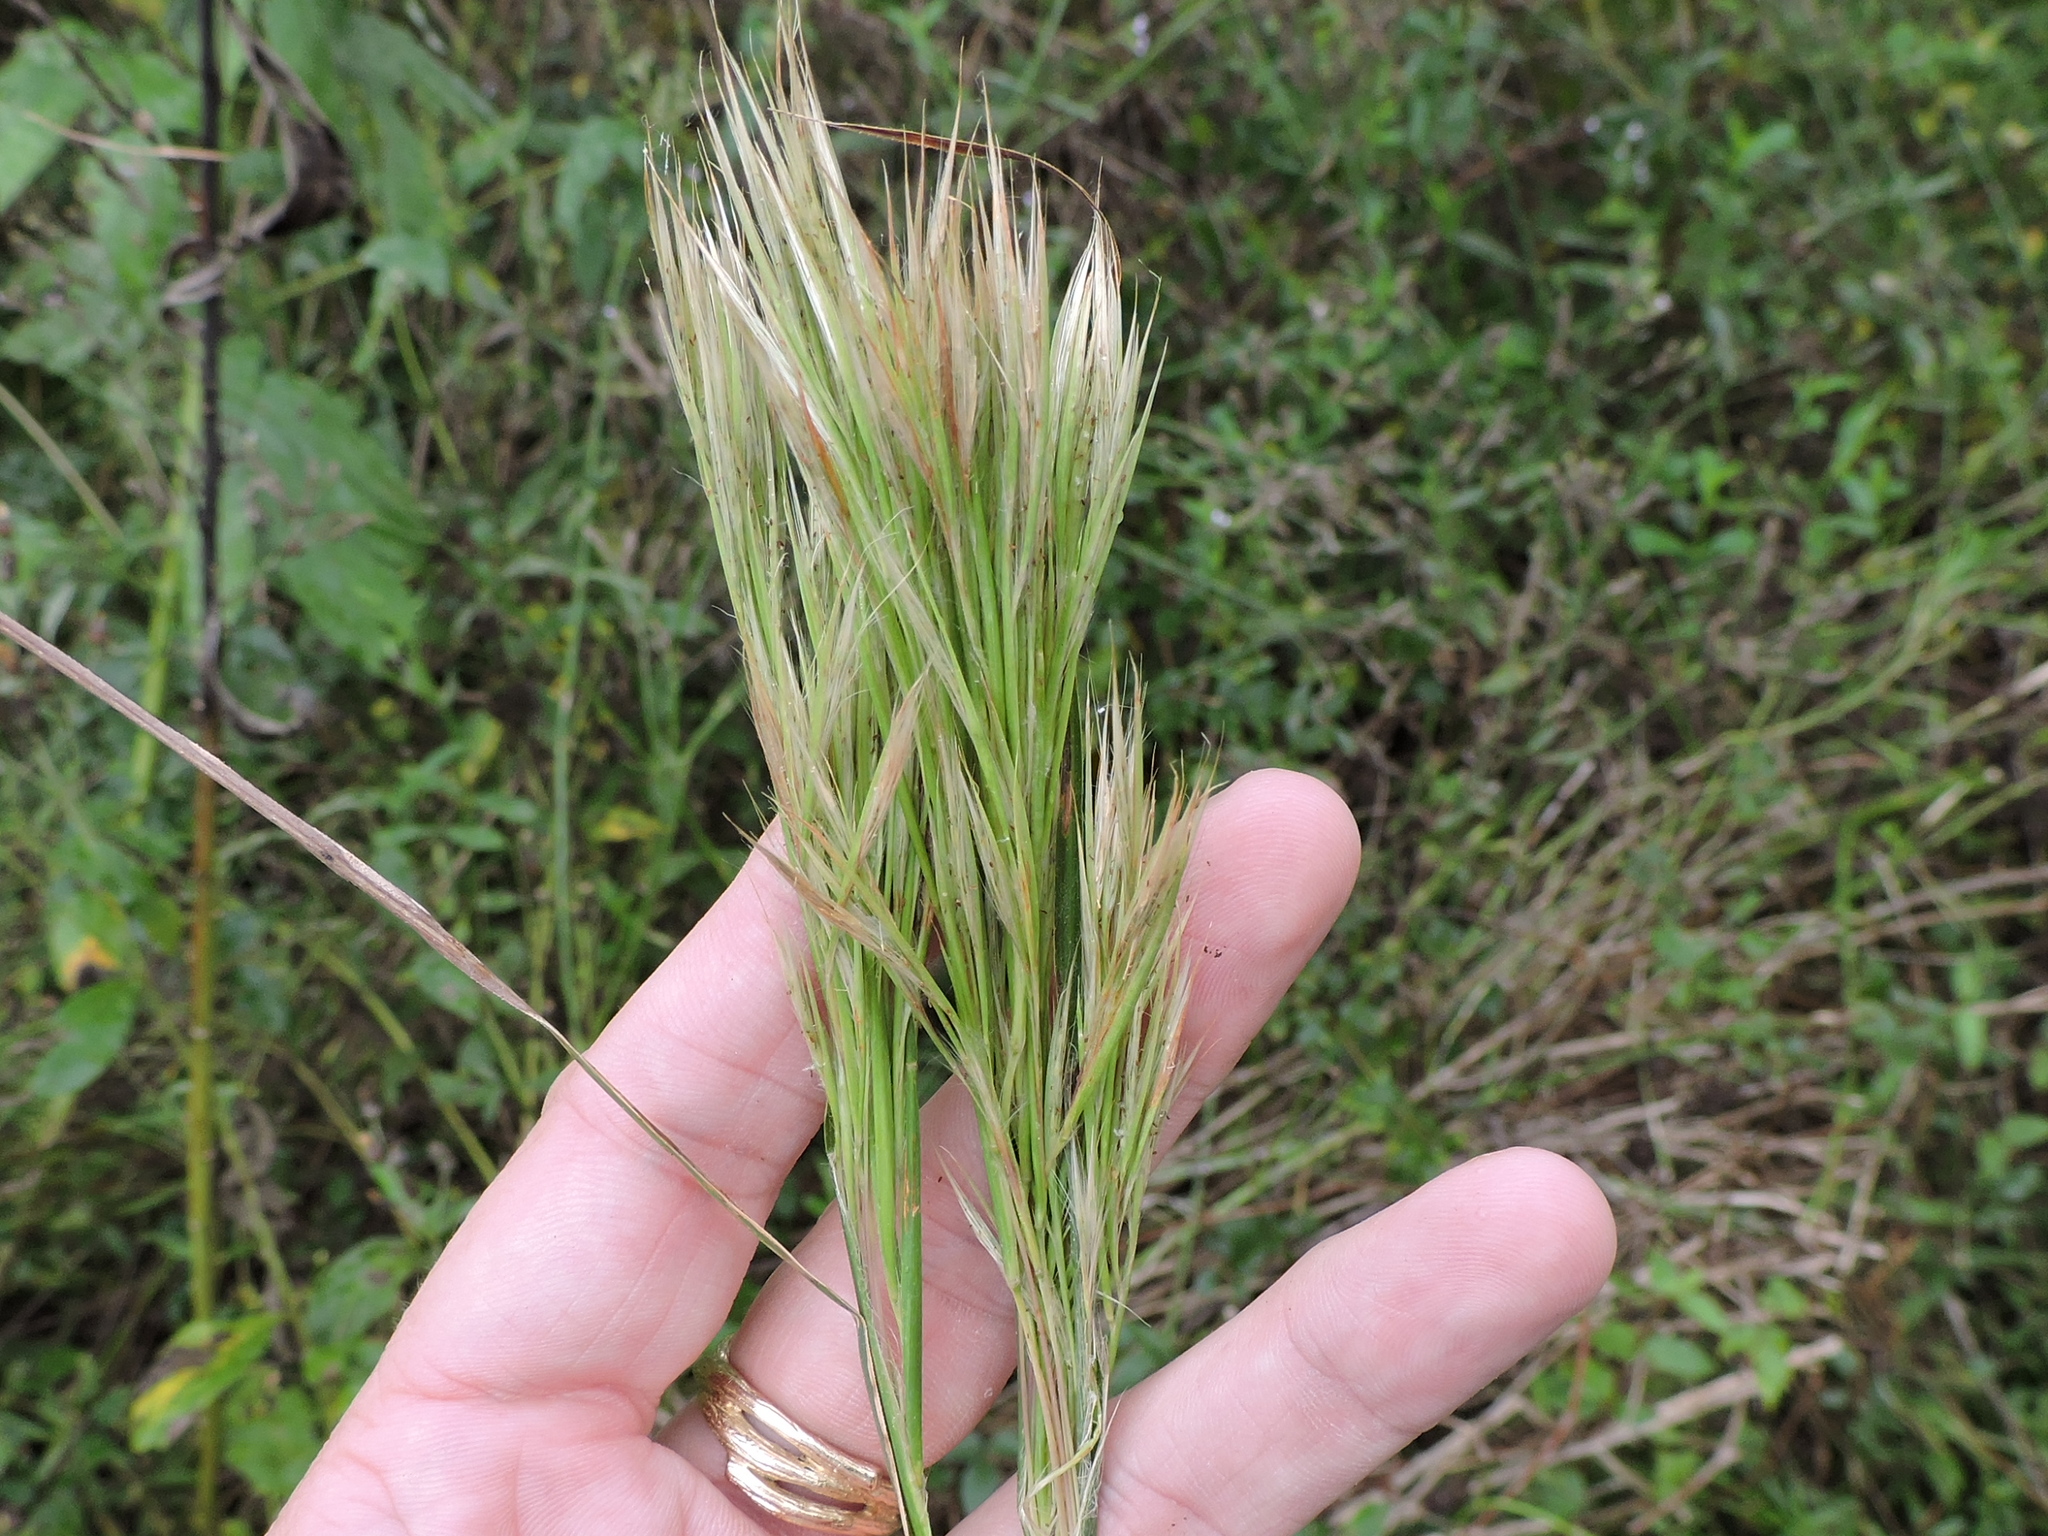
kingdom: Plantae
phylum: Tracheophyta
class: Liliopsida
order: Poales
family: Poaceae
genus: Andropogon
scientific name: Andropogon tenuispatheus
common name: Bushy bluestem
